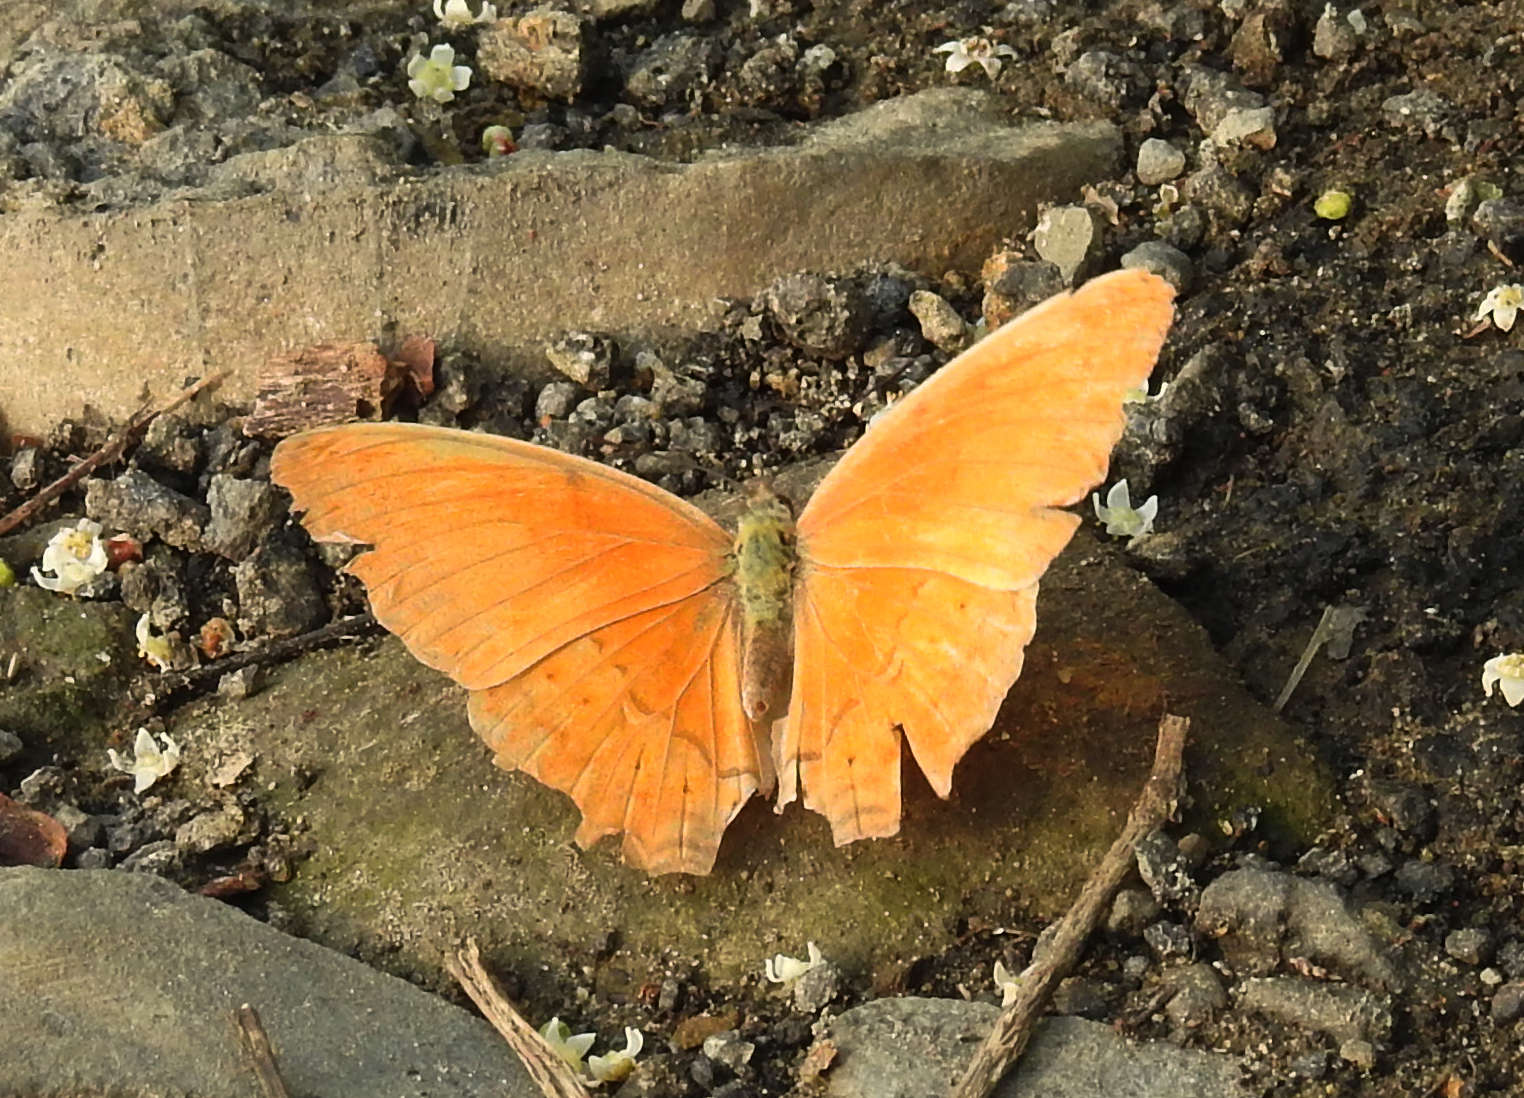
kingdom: Animalia
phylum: Arthropoda
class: Insecta
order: Lepidoptera
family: Nymphalidae
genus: Cirrochroa
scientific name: Cirrochroa tyche
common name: Common yeoman
